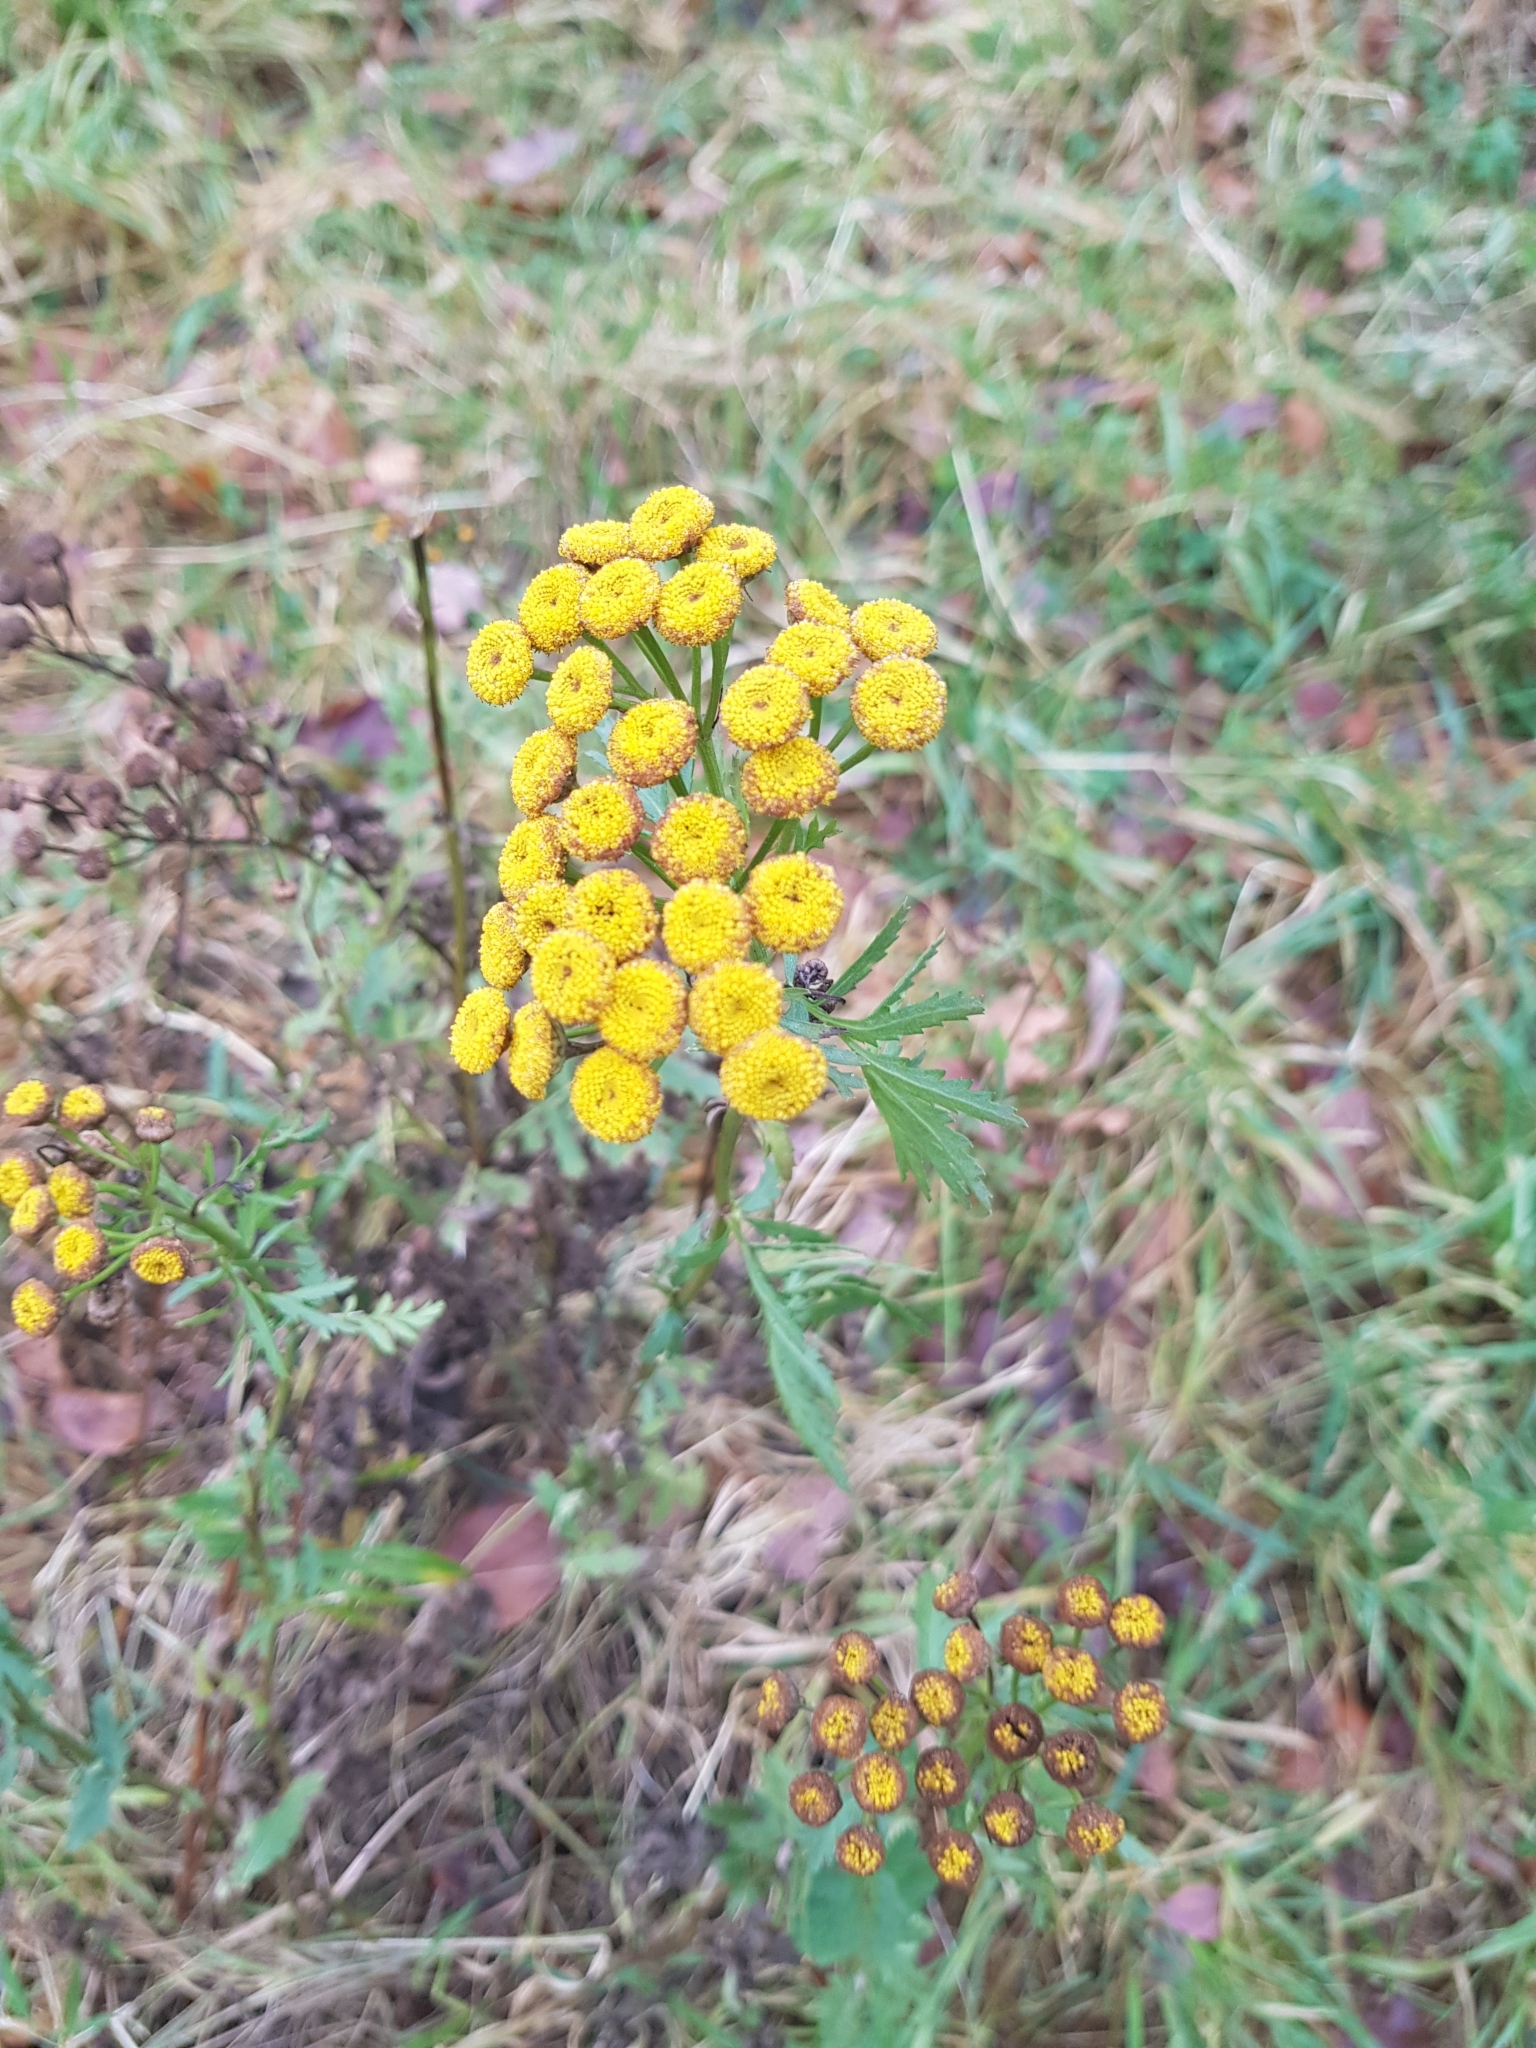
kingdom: Plantae
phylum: Tracheophyta
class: Magnoliopsida
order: Asterales
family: Asteraceae
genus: Tanacetum
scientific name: Tanacetum vulgare
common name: Common tansy
